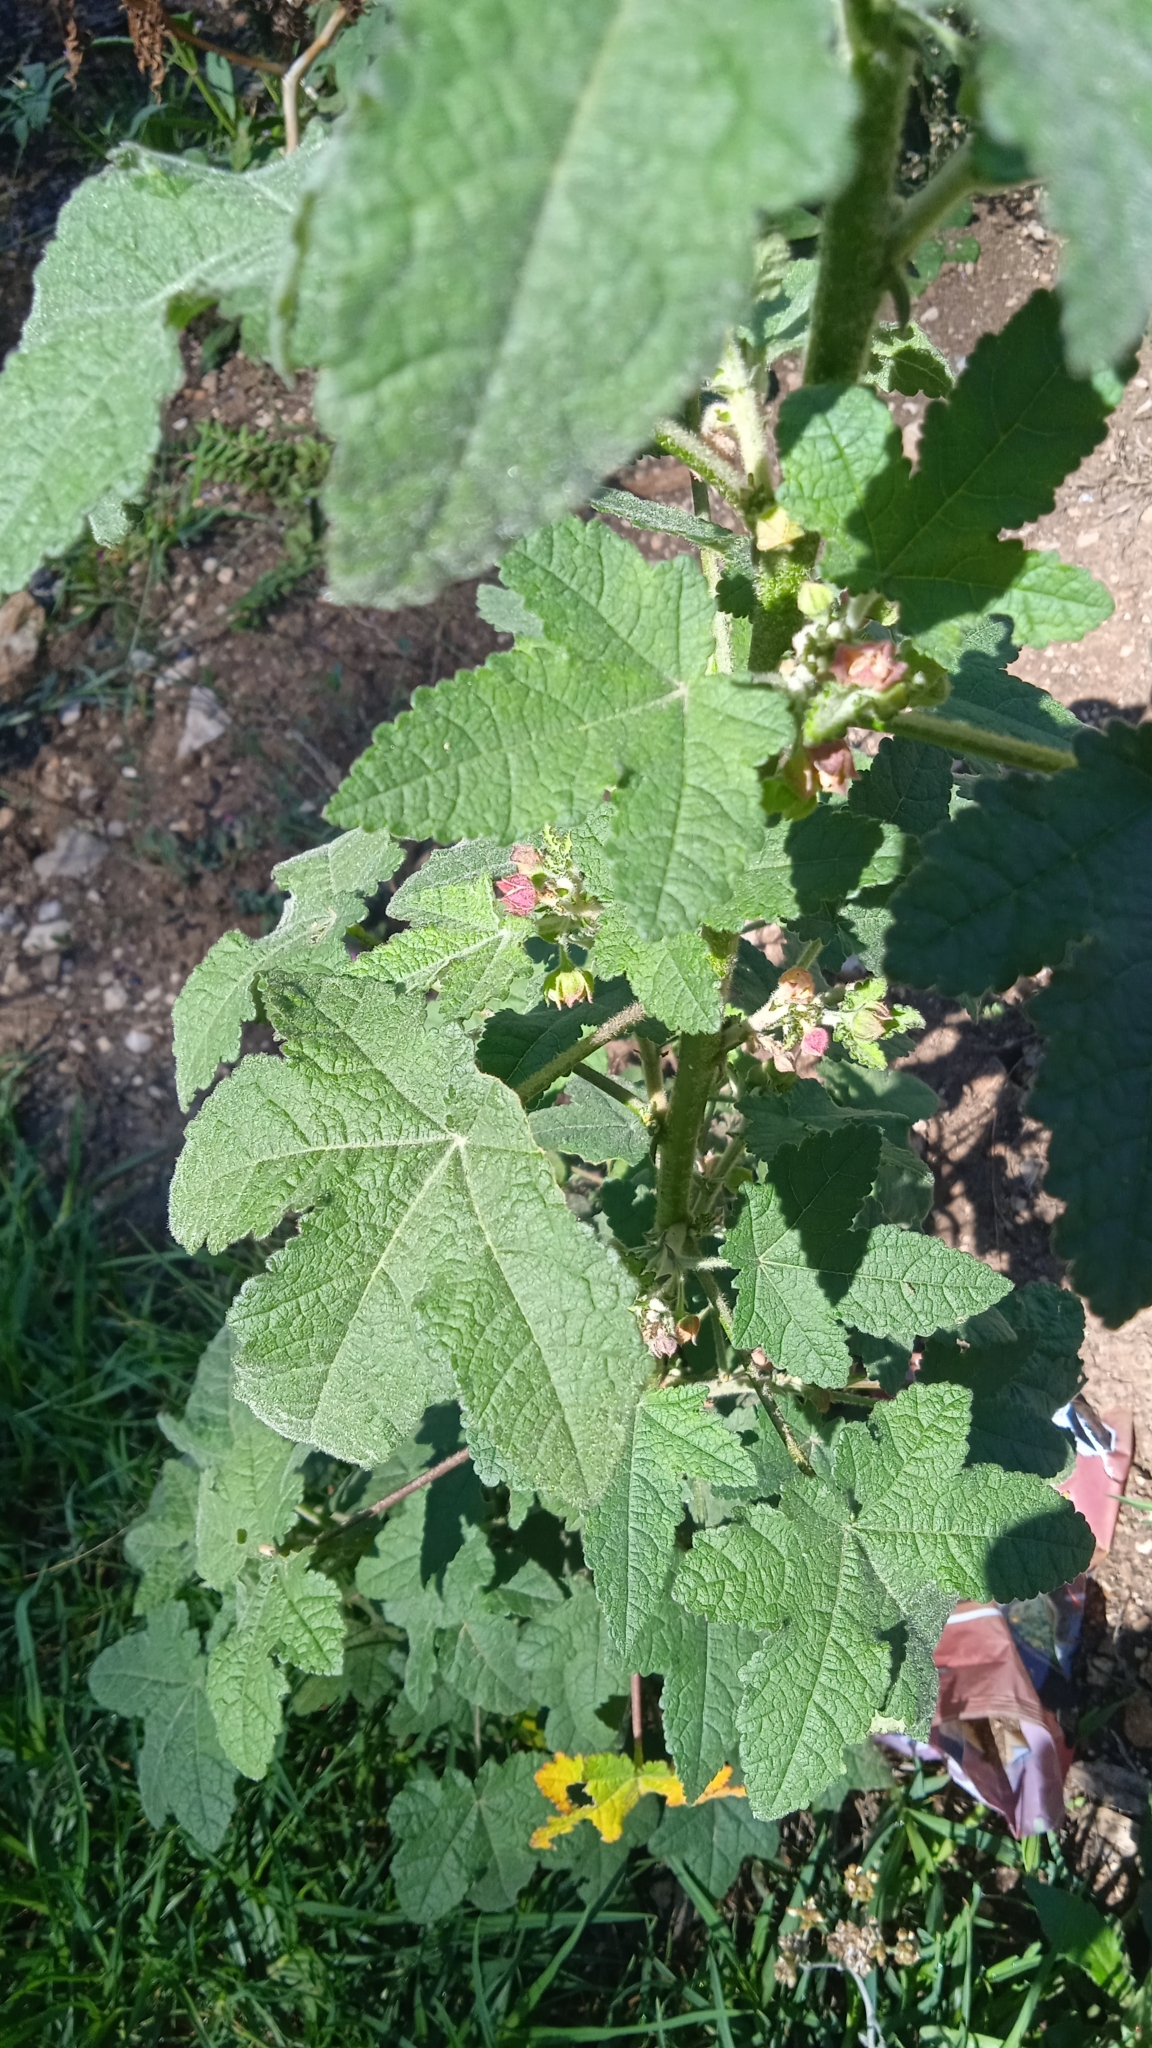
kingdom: Plantae
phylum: Tracheophyta
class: Magnoliopsida
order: Malvales
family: Malvaceae
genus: Fuertesimalva
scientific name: Fuertesimalva limensis
